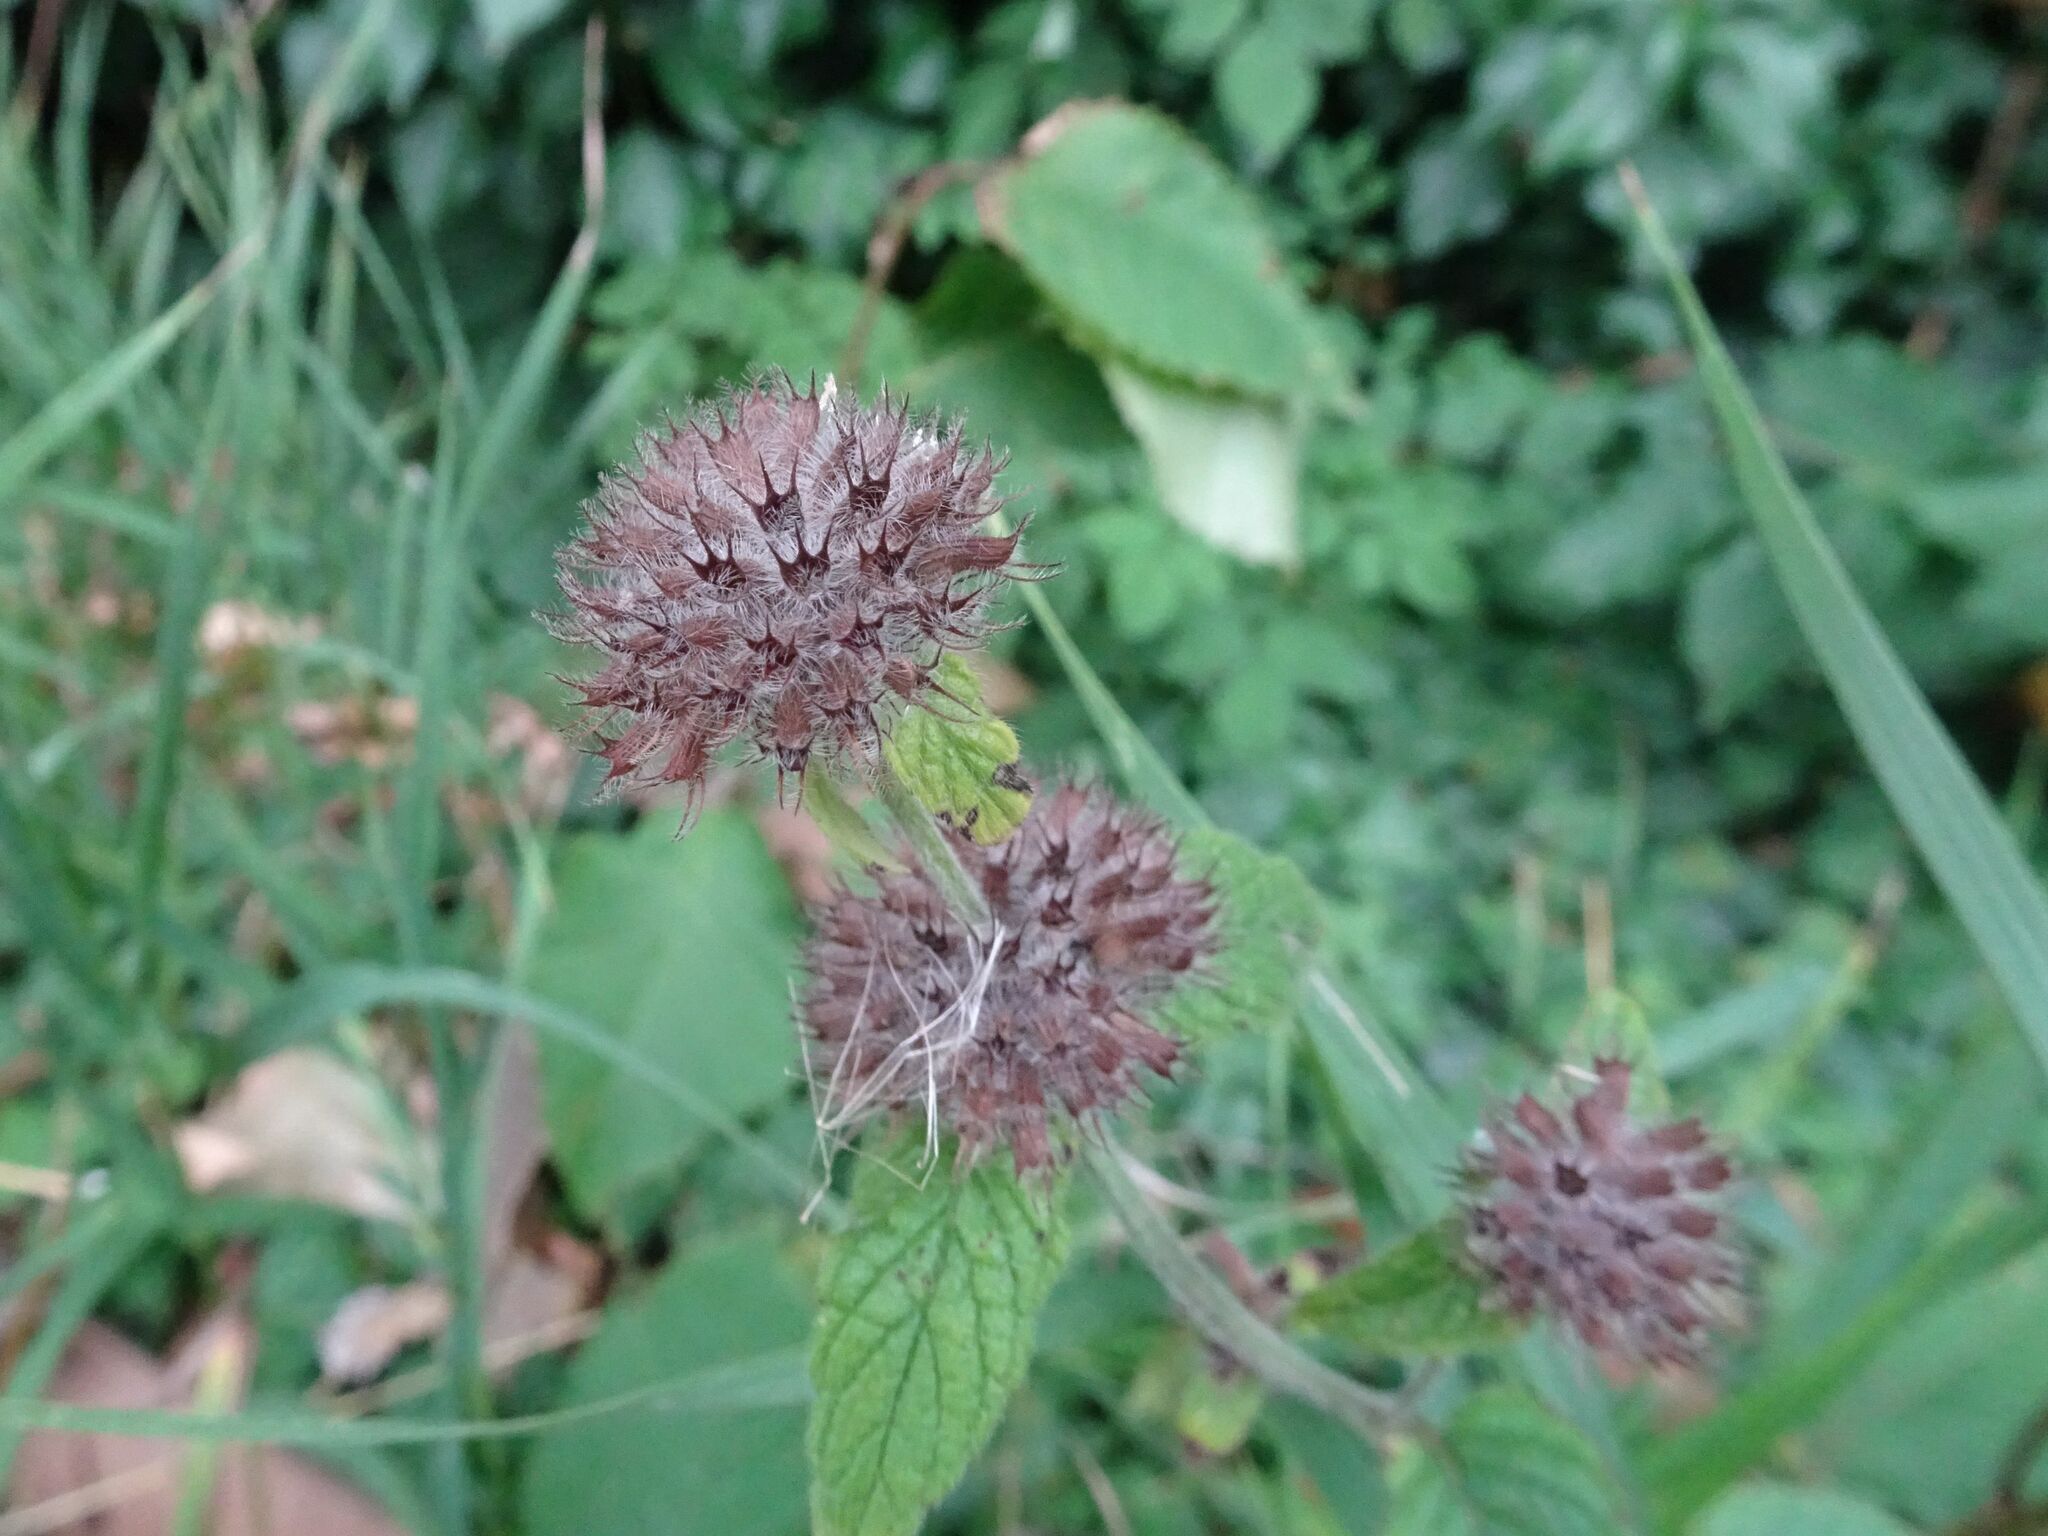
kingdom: Plantae
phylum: Tracheophyta
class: Magnoliopsida
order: Lamiales
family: Lamiaceae
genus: Clinopodium
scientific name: Clinopodium vulgare
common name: Wild basil
